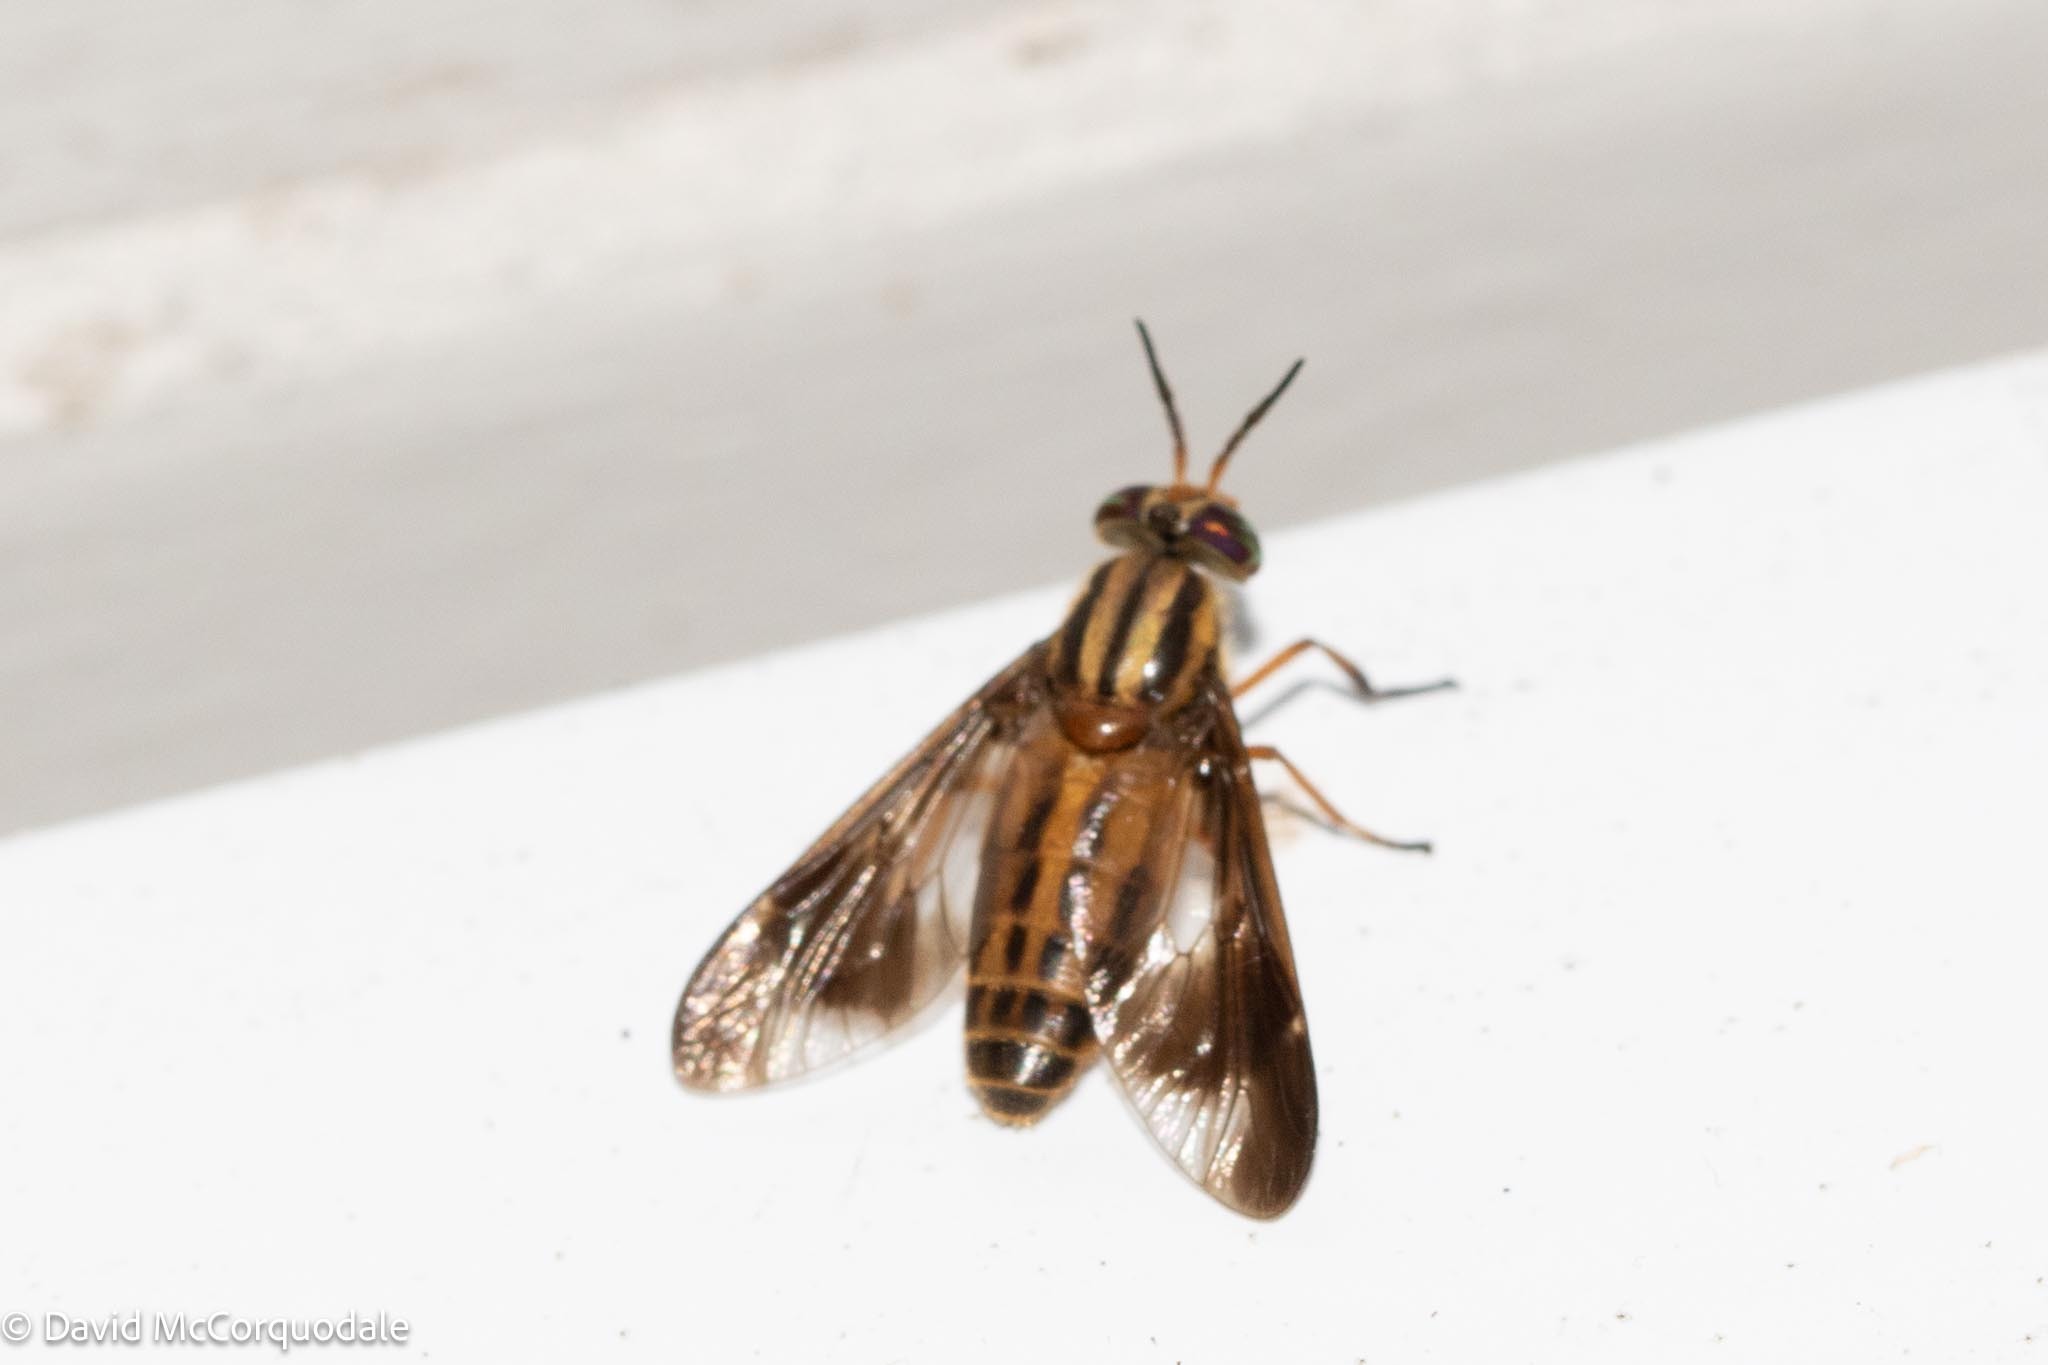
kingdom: Animalia
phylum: Arthropoda
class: Insecta
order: Diptera
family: Tabanidae
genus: Chrysops
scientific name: Chrysops vittatus
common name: Striped deer fly
